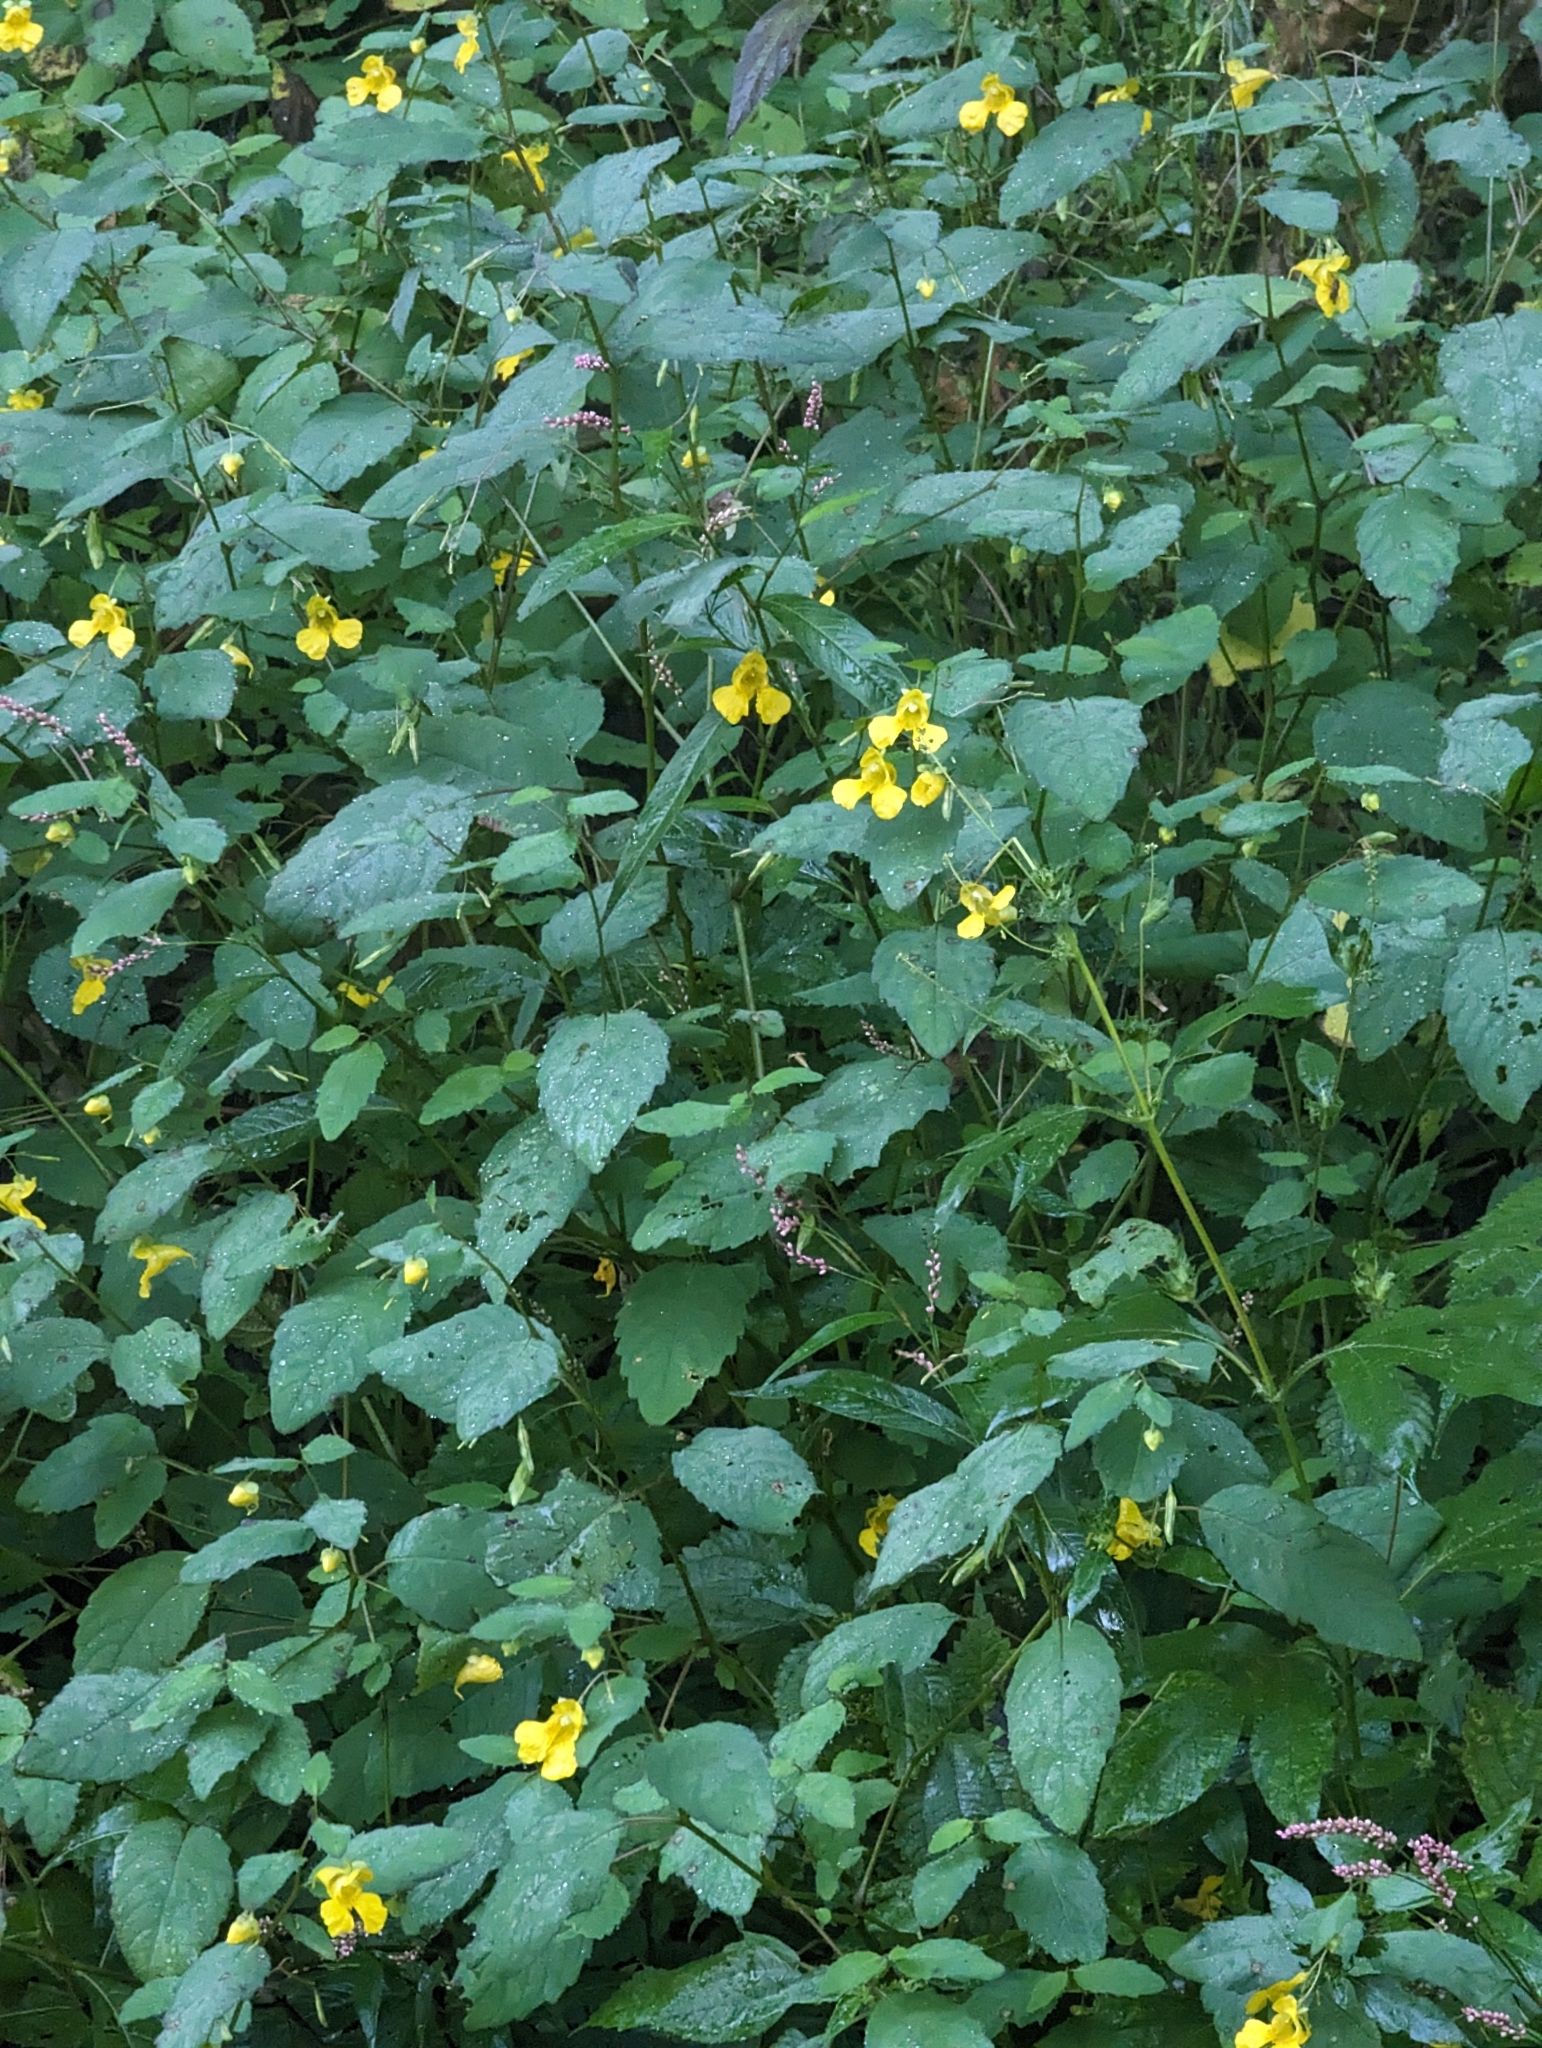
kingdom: Plantae
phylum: Tracheophyta
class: Magnoliopsida
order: Ericales
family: Balsaminaceae
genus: Impatiens
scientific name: Impatiens pallida
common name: Pale snapweed
